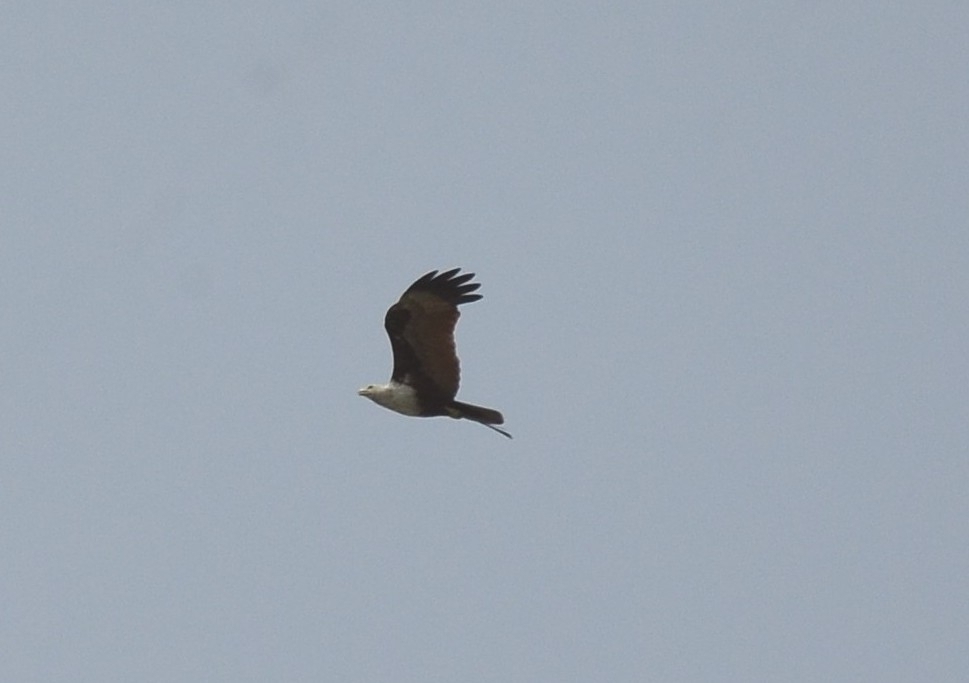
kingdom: Animalia
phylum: Chordata
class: Aves
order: Accipitriformes
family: Accipitridae
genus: Haliastur
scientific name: Haliastur indus
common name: Brahminy kite
